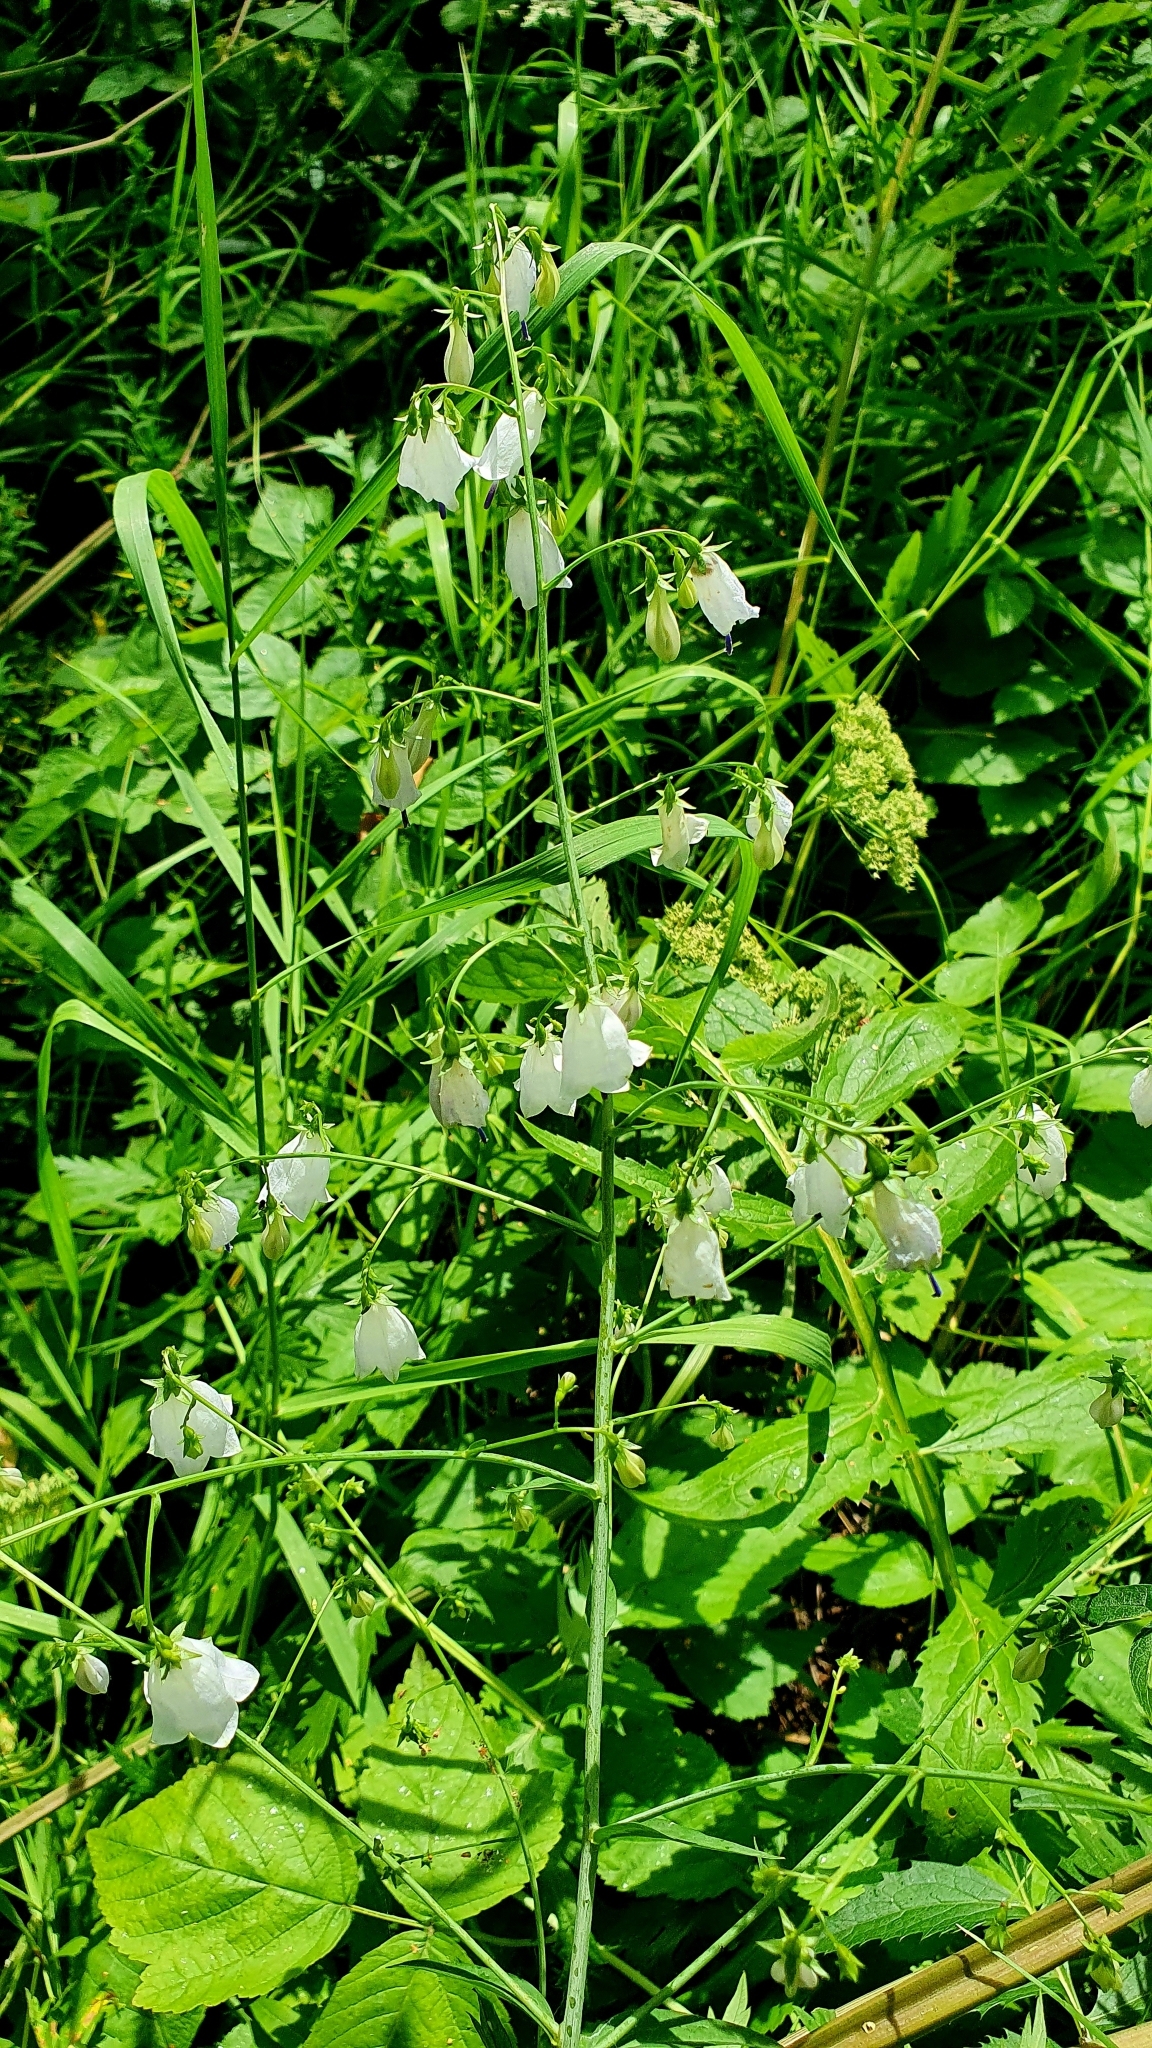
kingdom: Plantae
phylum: Tracheophyta
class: Magnoliopsida
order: Asterales
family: Campanulaceae
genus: Adenophora
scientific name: Adenophora liliifolia
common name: Lilyleaf ladybells
